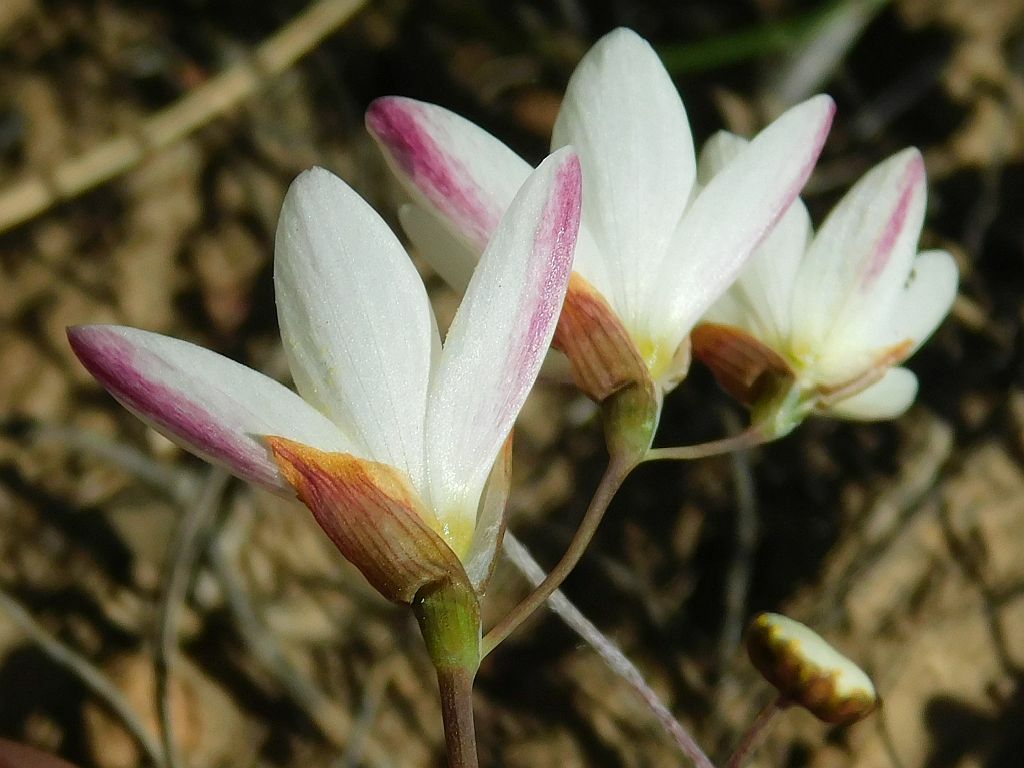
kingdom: Plantae
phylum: Tracheophyta
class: Liliopsida
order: Asparagales
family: Iridaceae
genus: Geissorhiza
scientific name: Geissorhiza inflexa
